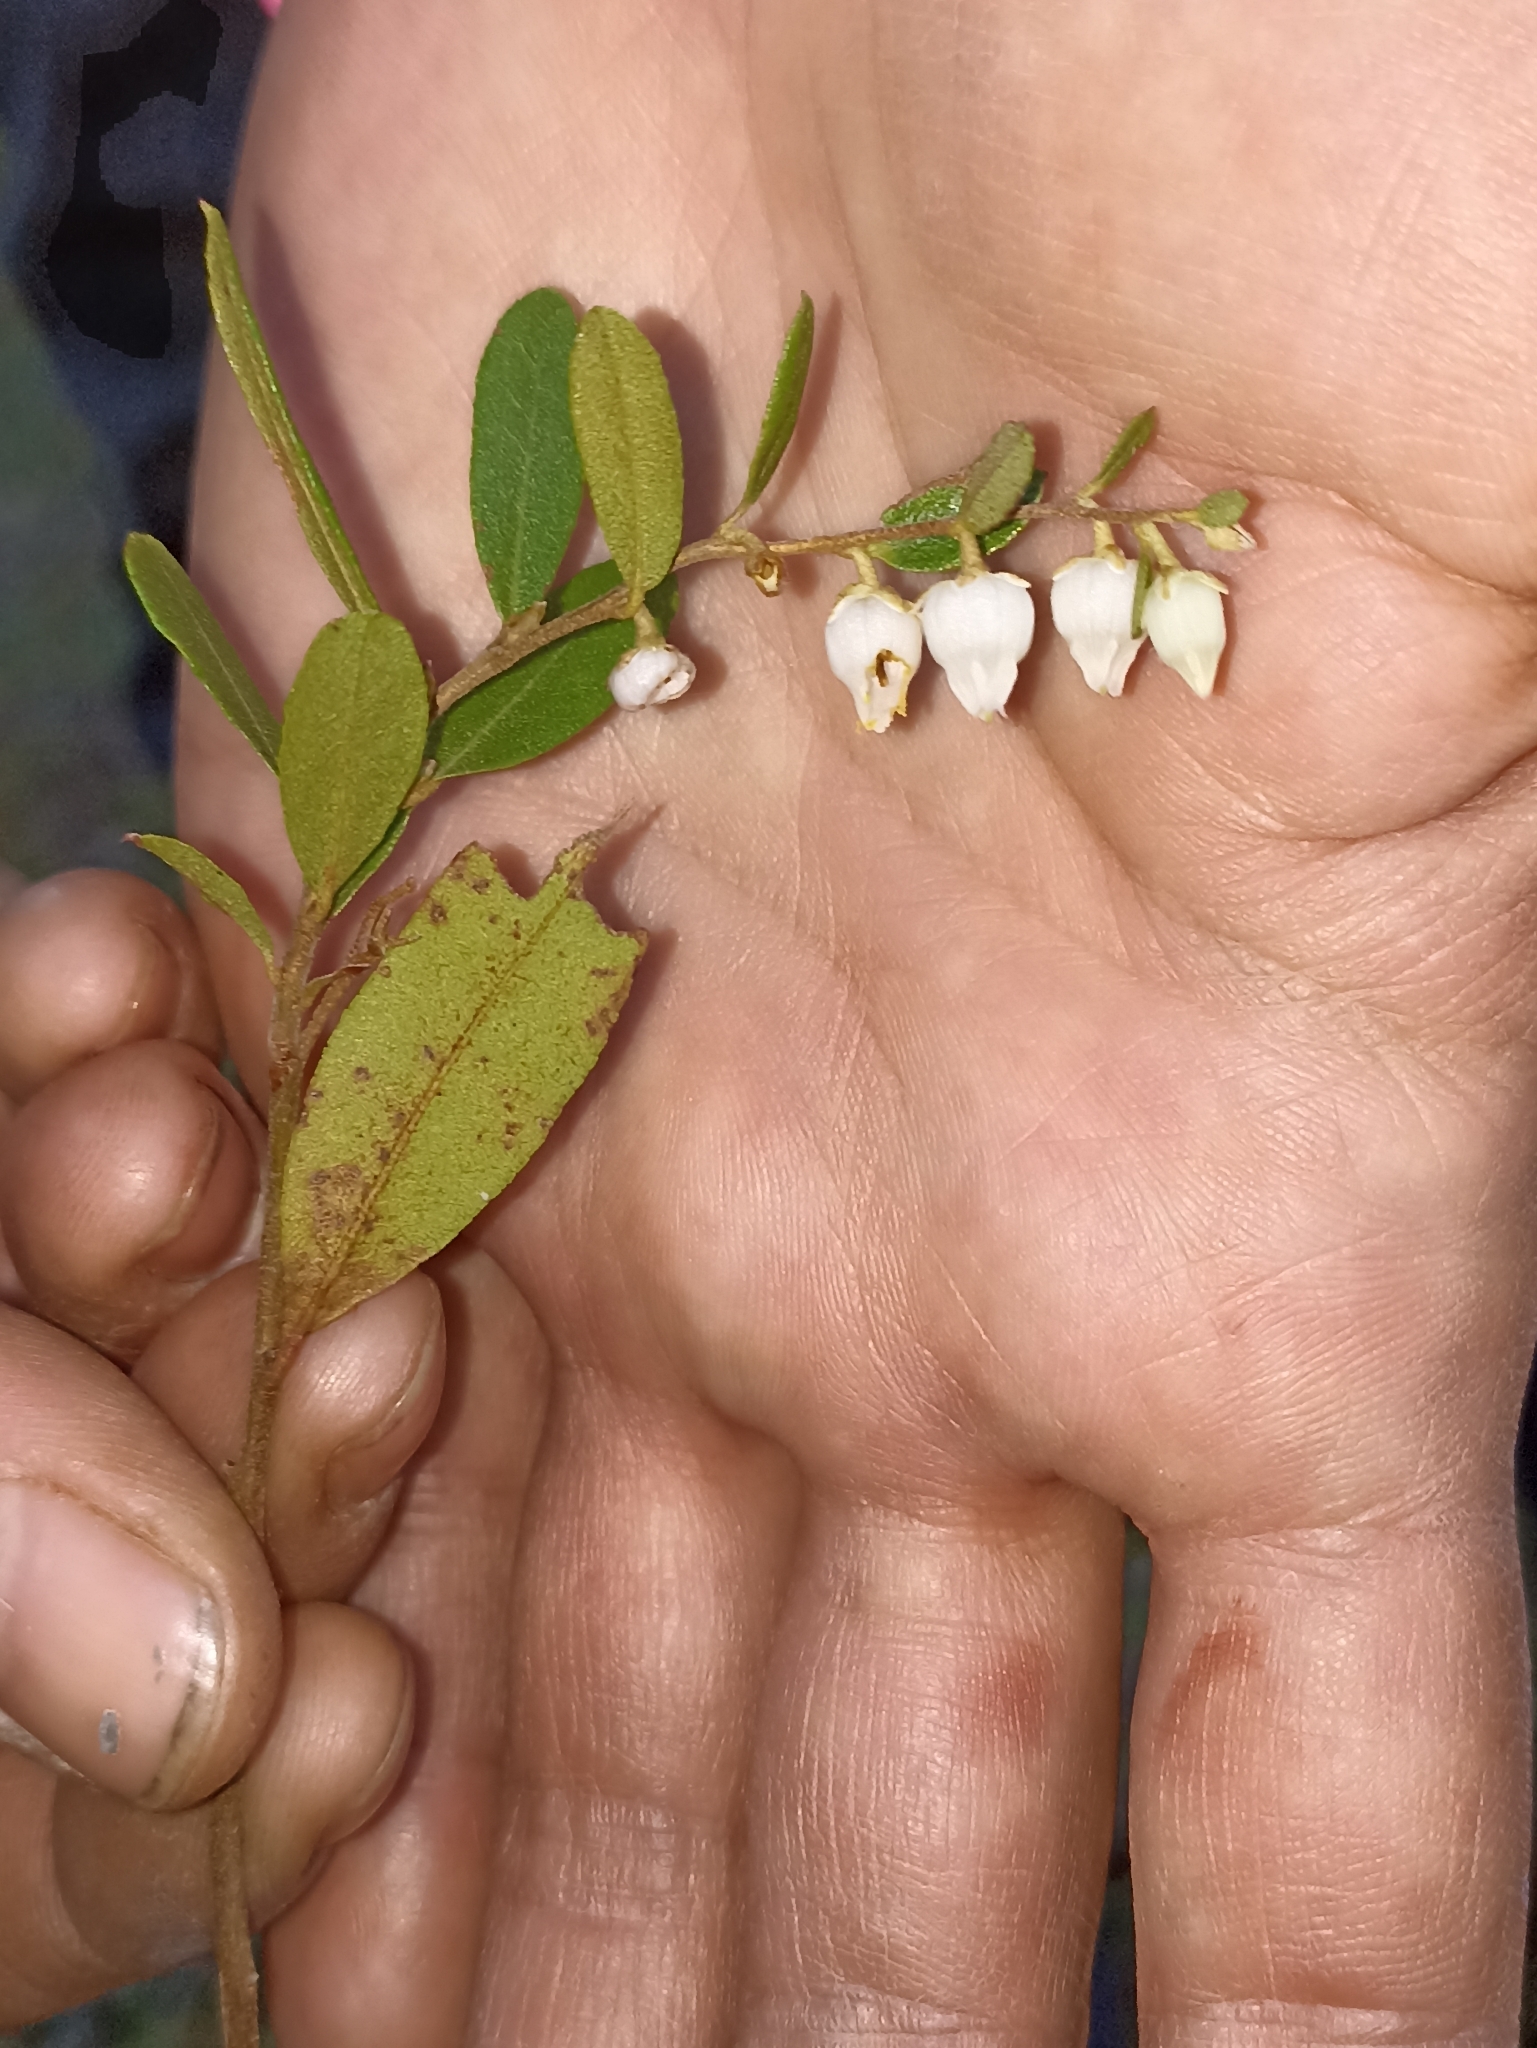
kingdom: Plantae
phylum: Tracheophyta
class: Magnoliopsida
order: Ericales
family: Ericaceae
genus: Chamaedaphne
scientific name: Chamaedaphne calyculata
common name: Leatherleaf
